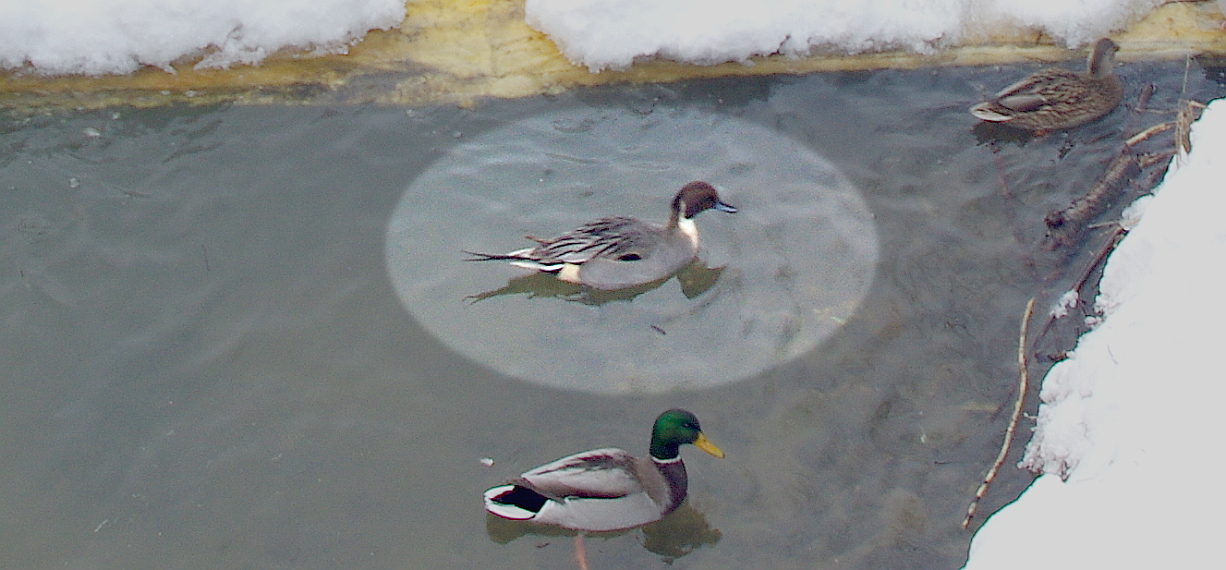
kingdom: Animalia
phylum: Chordata
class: Aves
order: Anseriformes
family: Anatidae
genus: Anas
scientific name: Anas acuta
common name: Northern pintail
